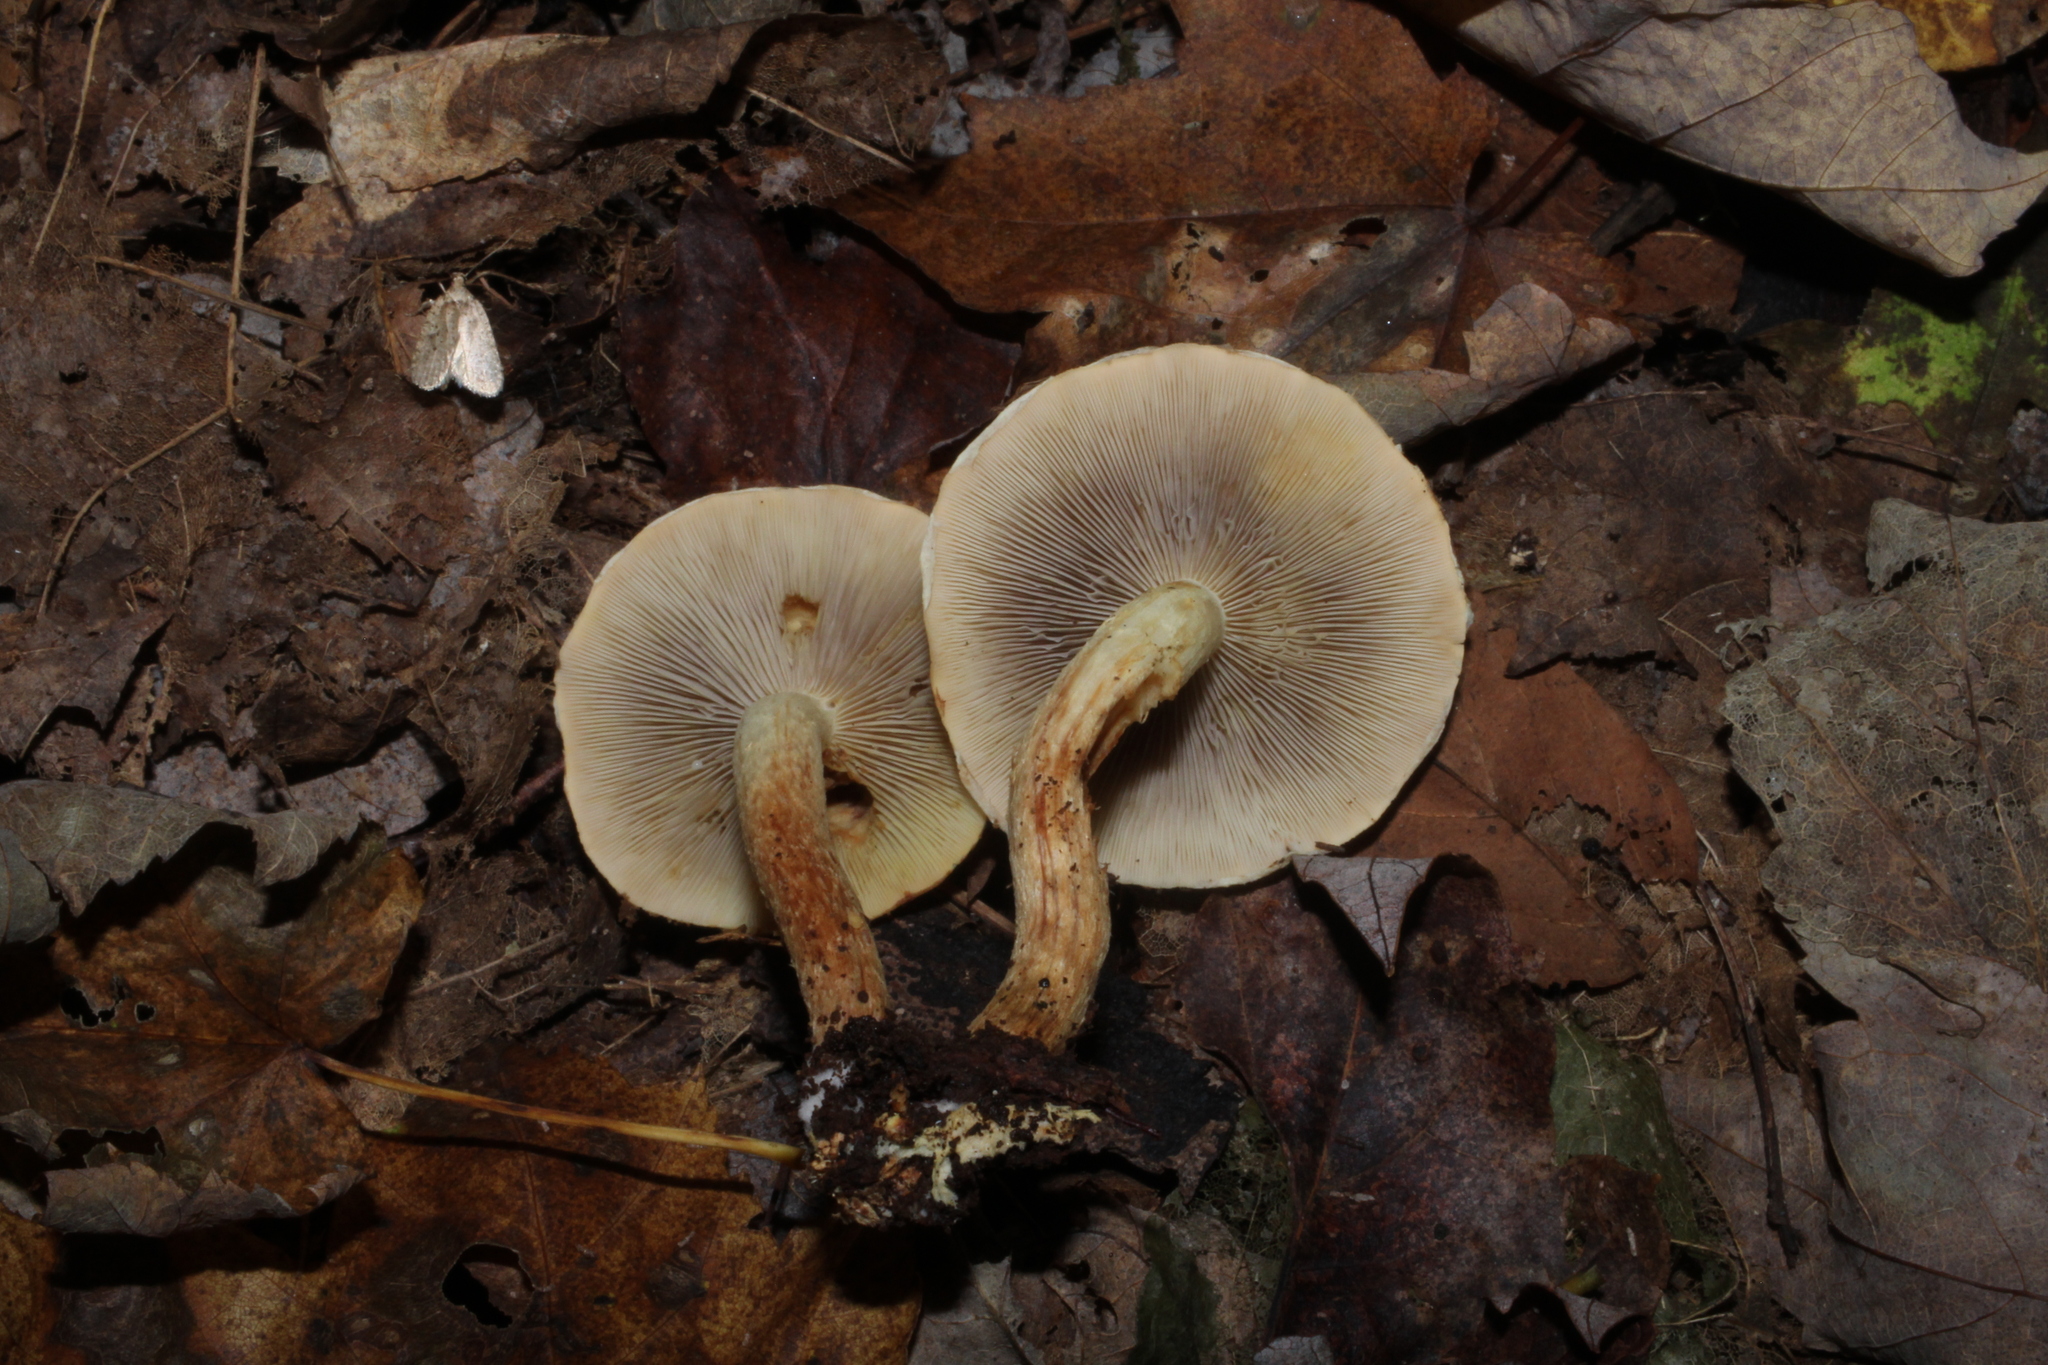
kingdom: Fungi
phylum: Basidiomycota
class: Agaricomycetes
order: Agaricales
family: Strophariaceae
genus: Hypholoma
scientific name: Hypholoma lateritium
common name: Brick caps
